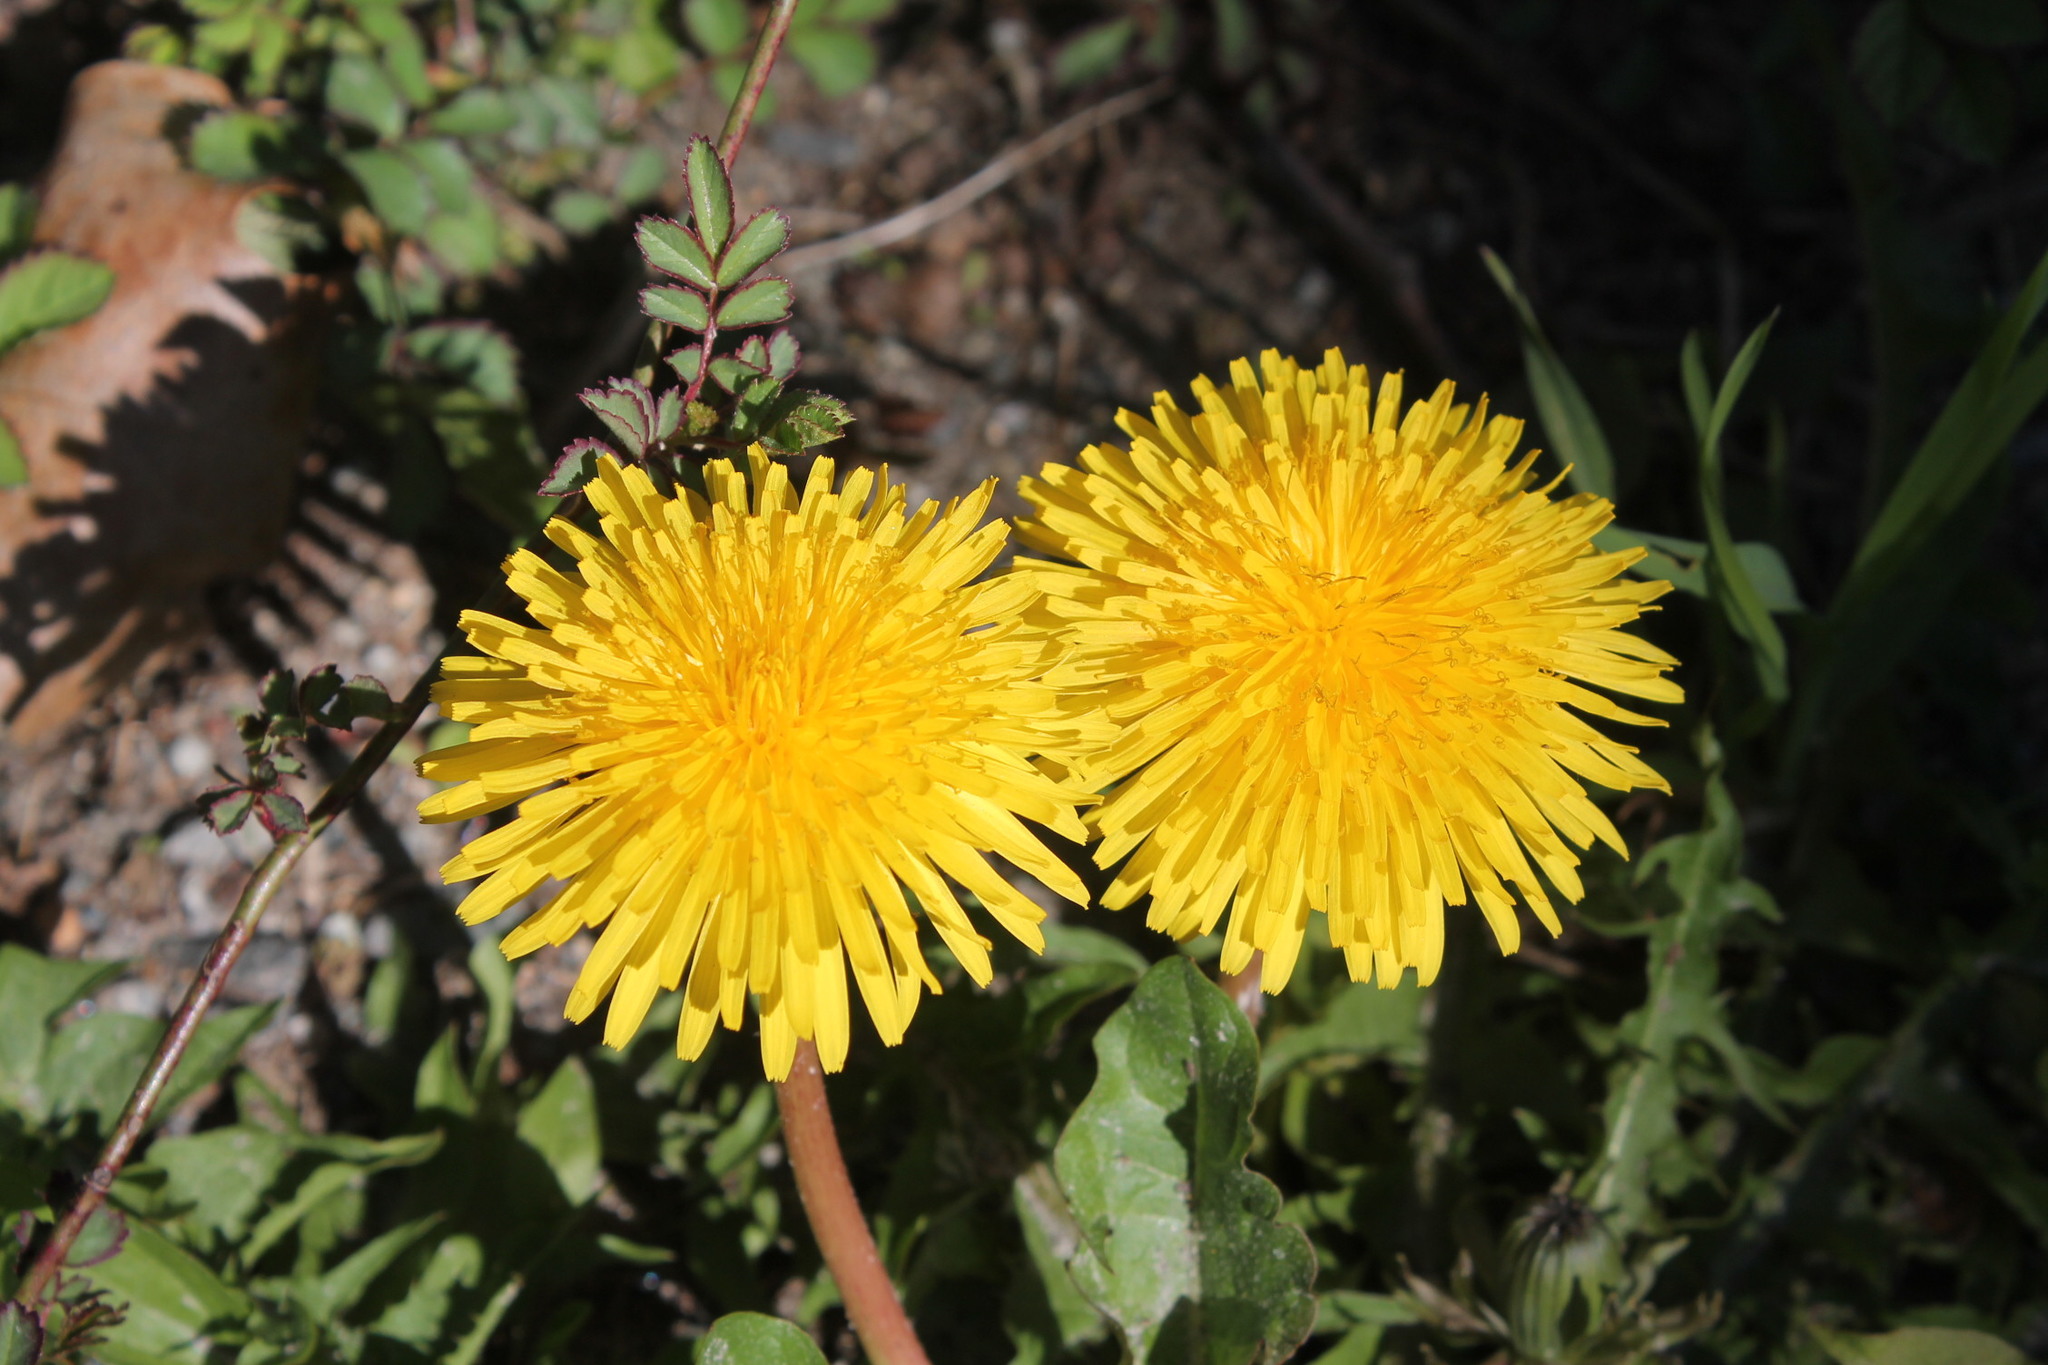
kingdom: Plantae
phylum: Tracheophyta
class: Magnoliopsida
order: Asterales
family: Asteraceae
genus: Taraxacum
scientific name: Taraxacum erythrospermum
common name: Rock dandelion
